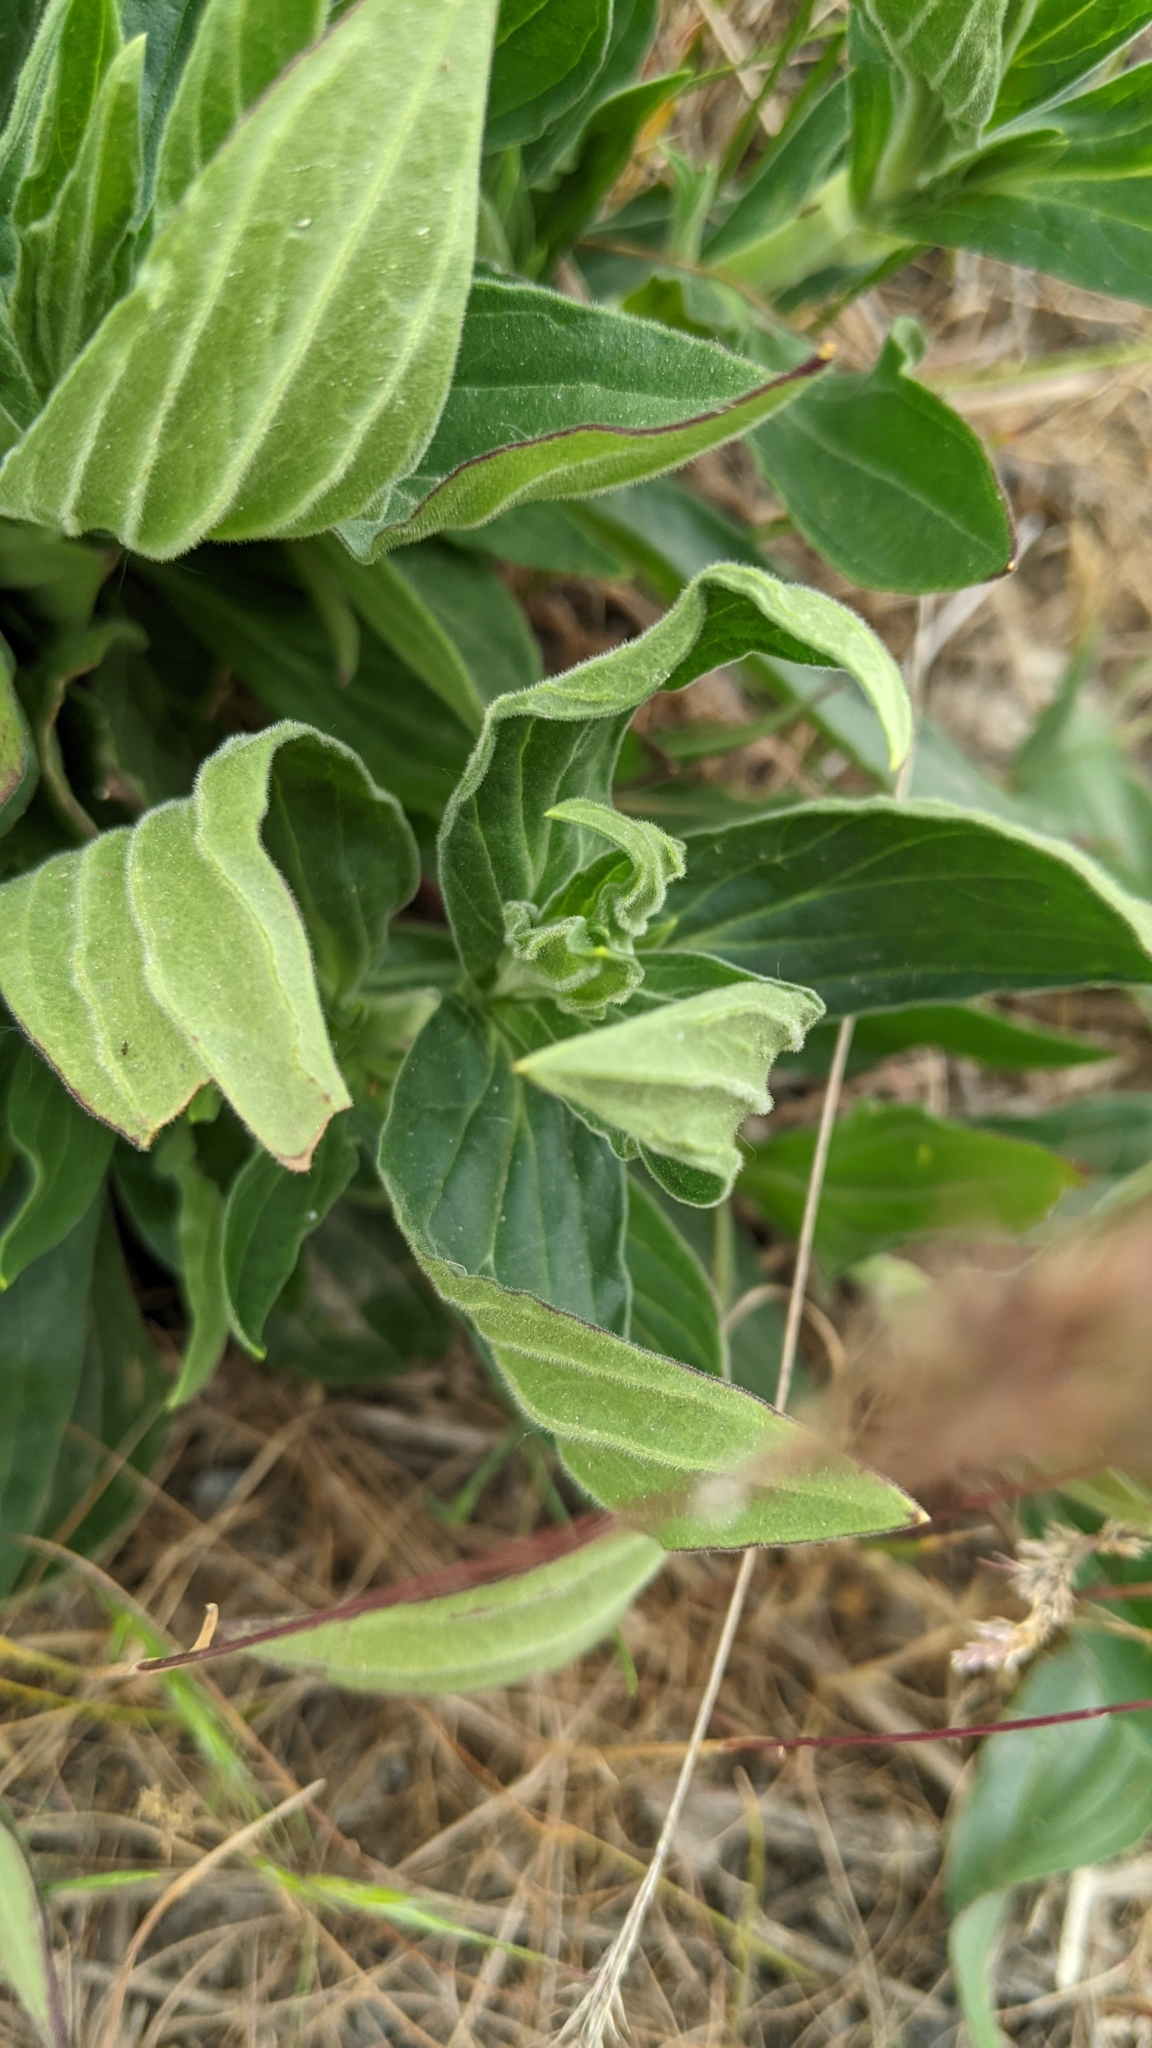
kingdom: Plantae
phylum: Tracheophyta
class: Magnoliopsida
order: Caryophyllales
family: Caryophyllaceae
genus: Silene
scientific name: Silene latifolia
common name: White campion
